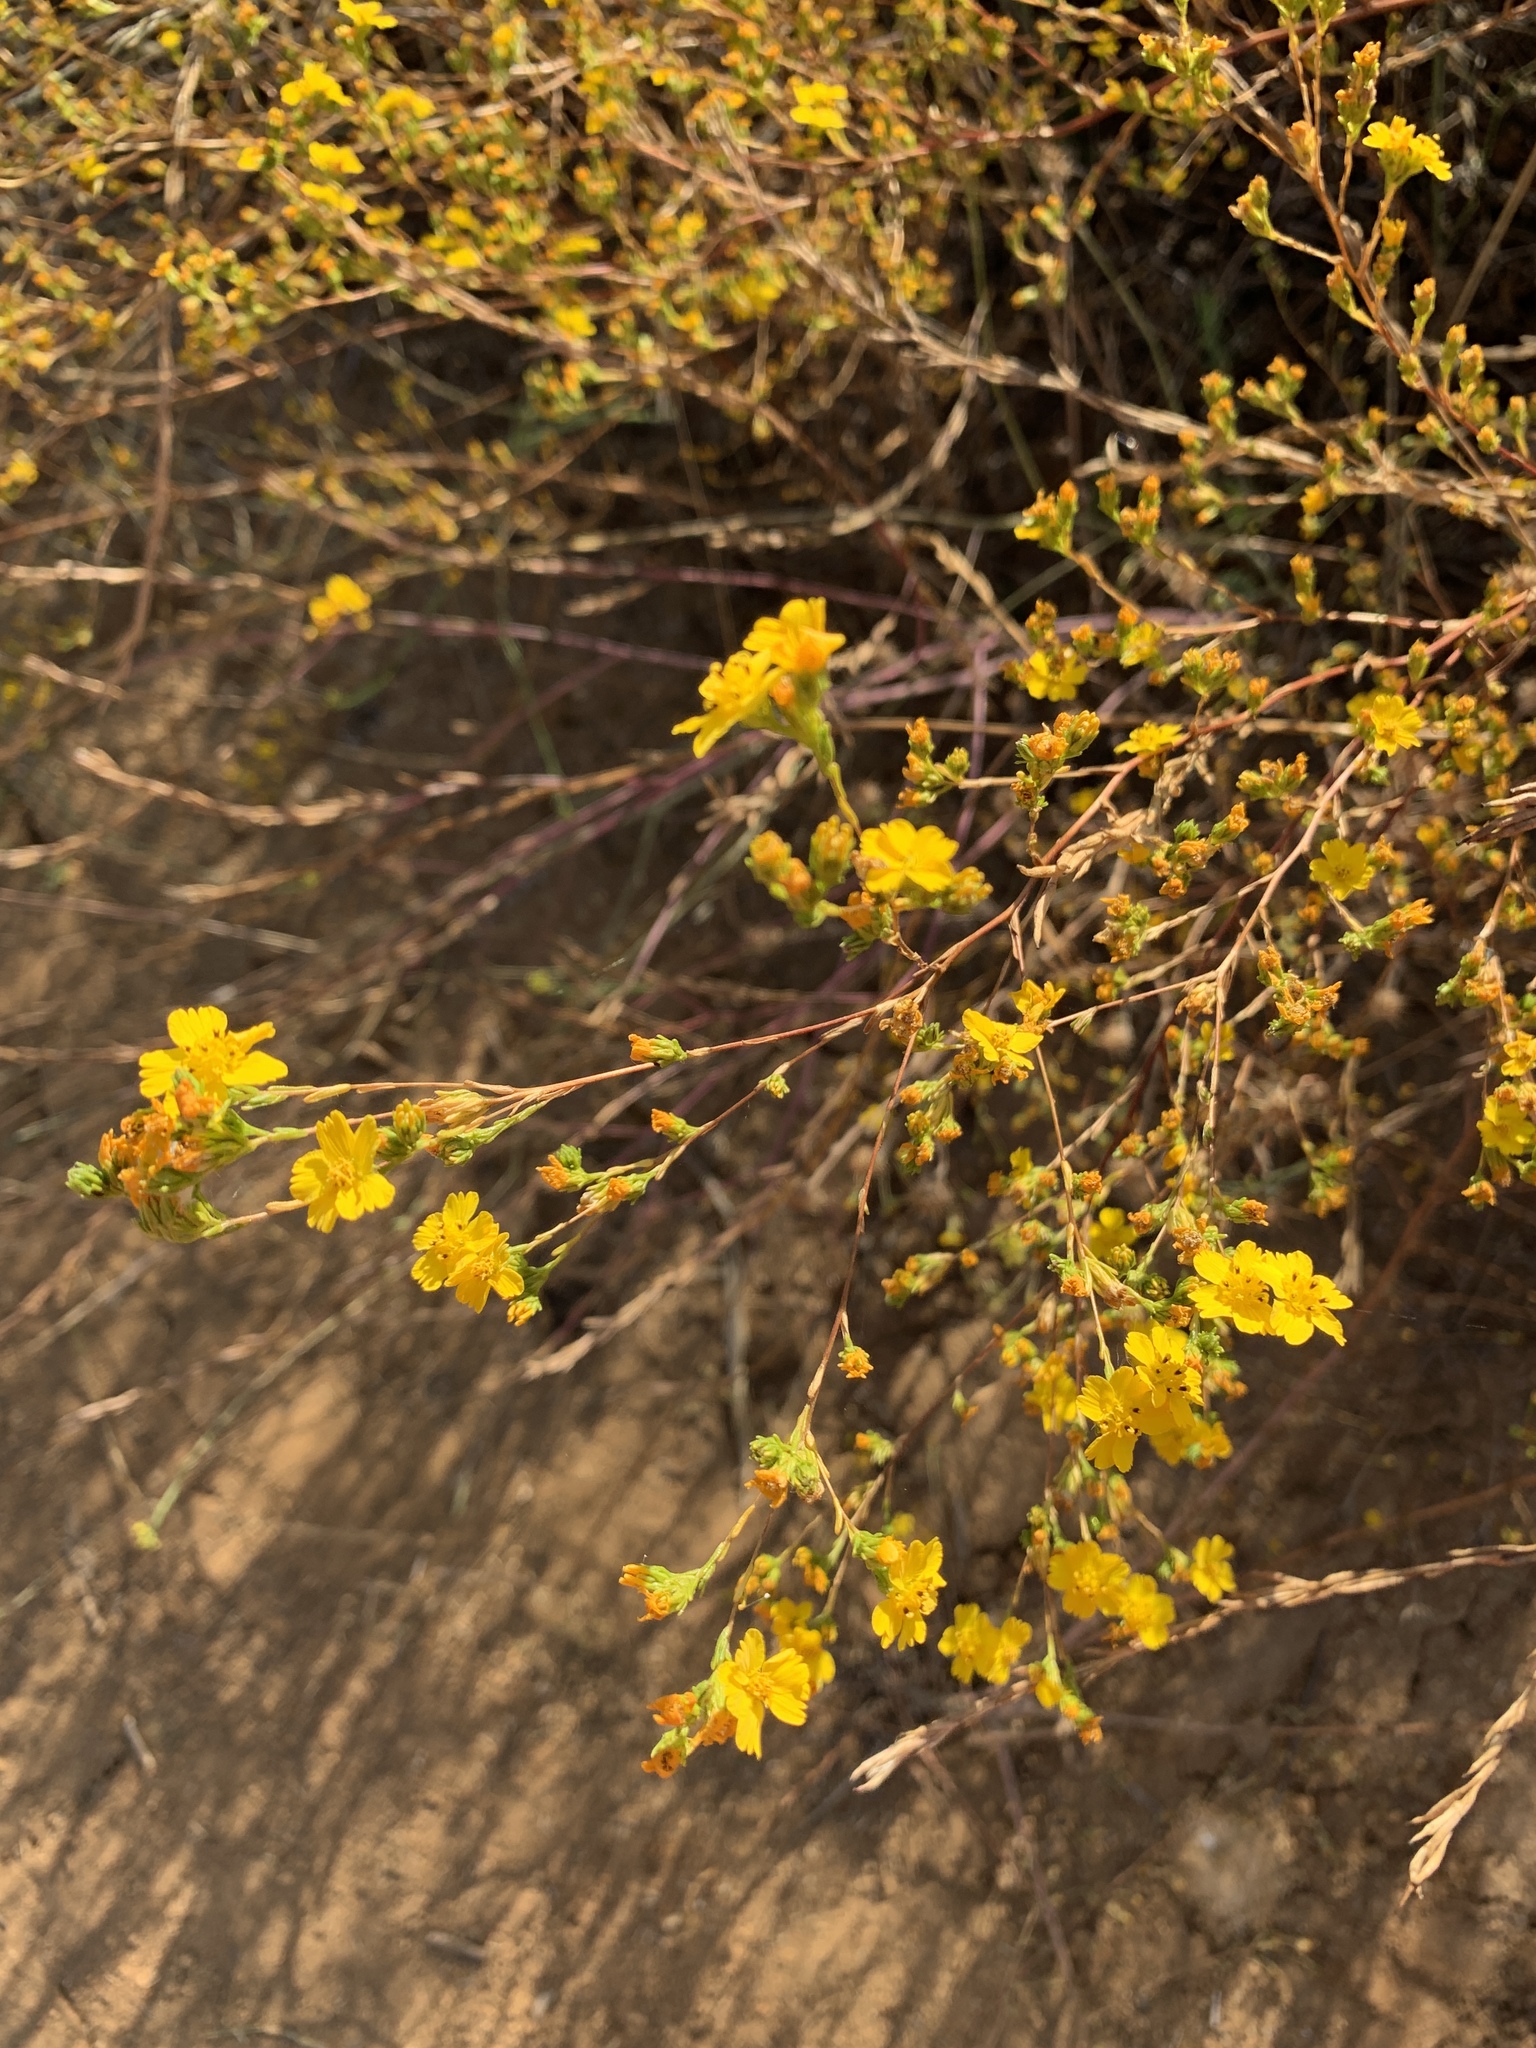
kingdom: Plantae
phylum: Tracheophyta
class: Magnoliopsida
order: Asterales
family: Asteraceae
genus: Deinandra
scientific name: Deinandra fasciculata
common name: Clustered tarweed
